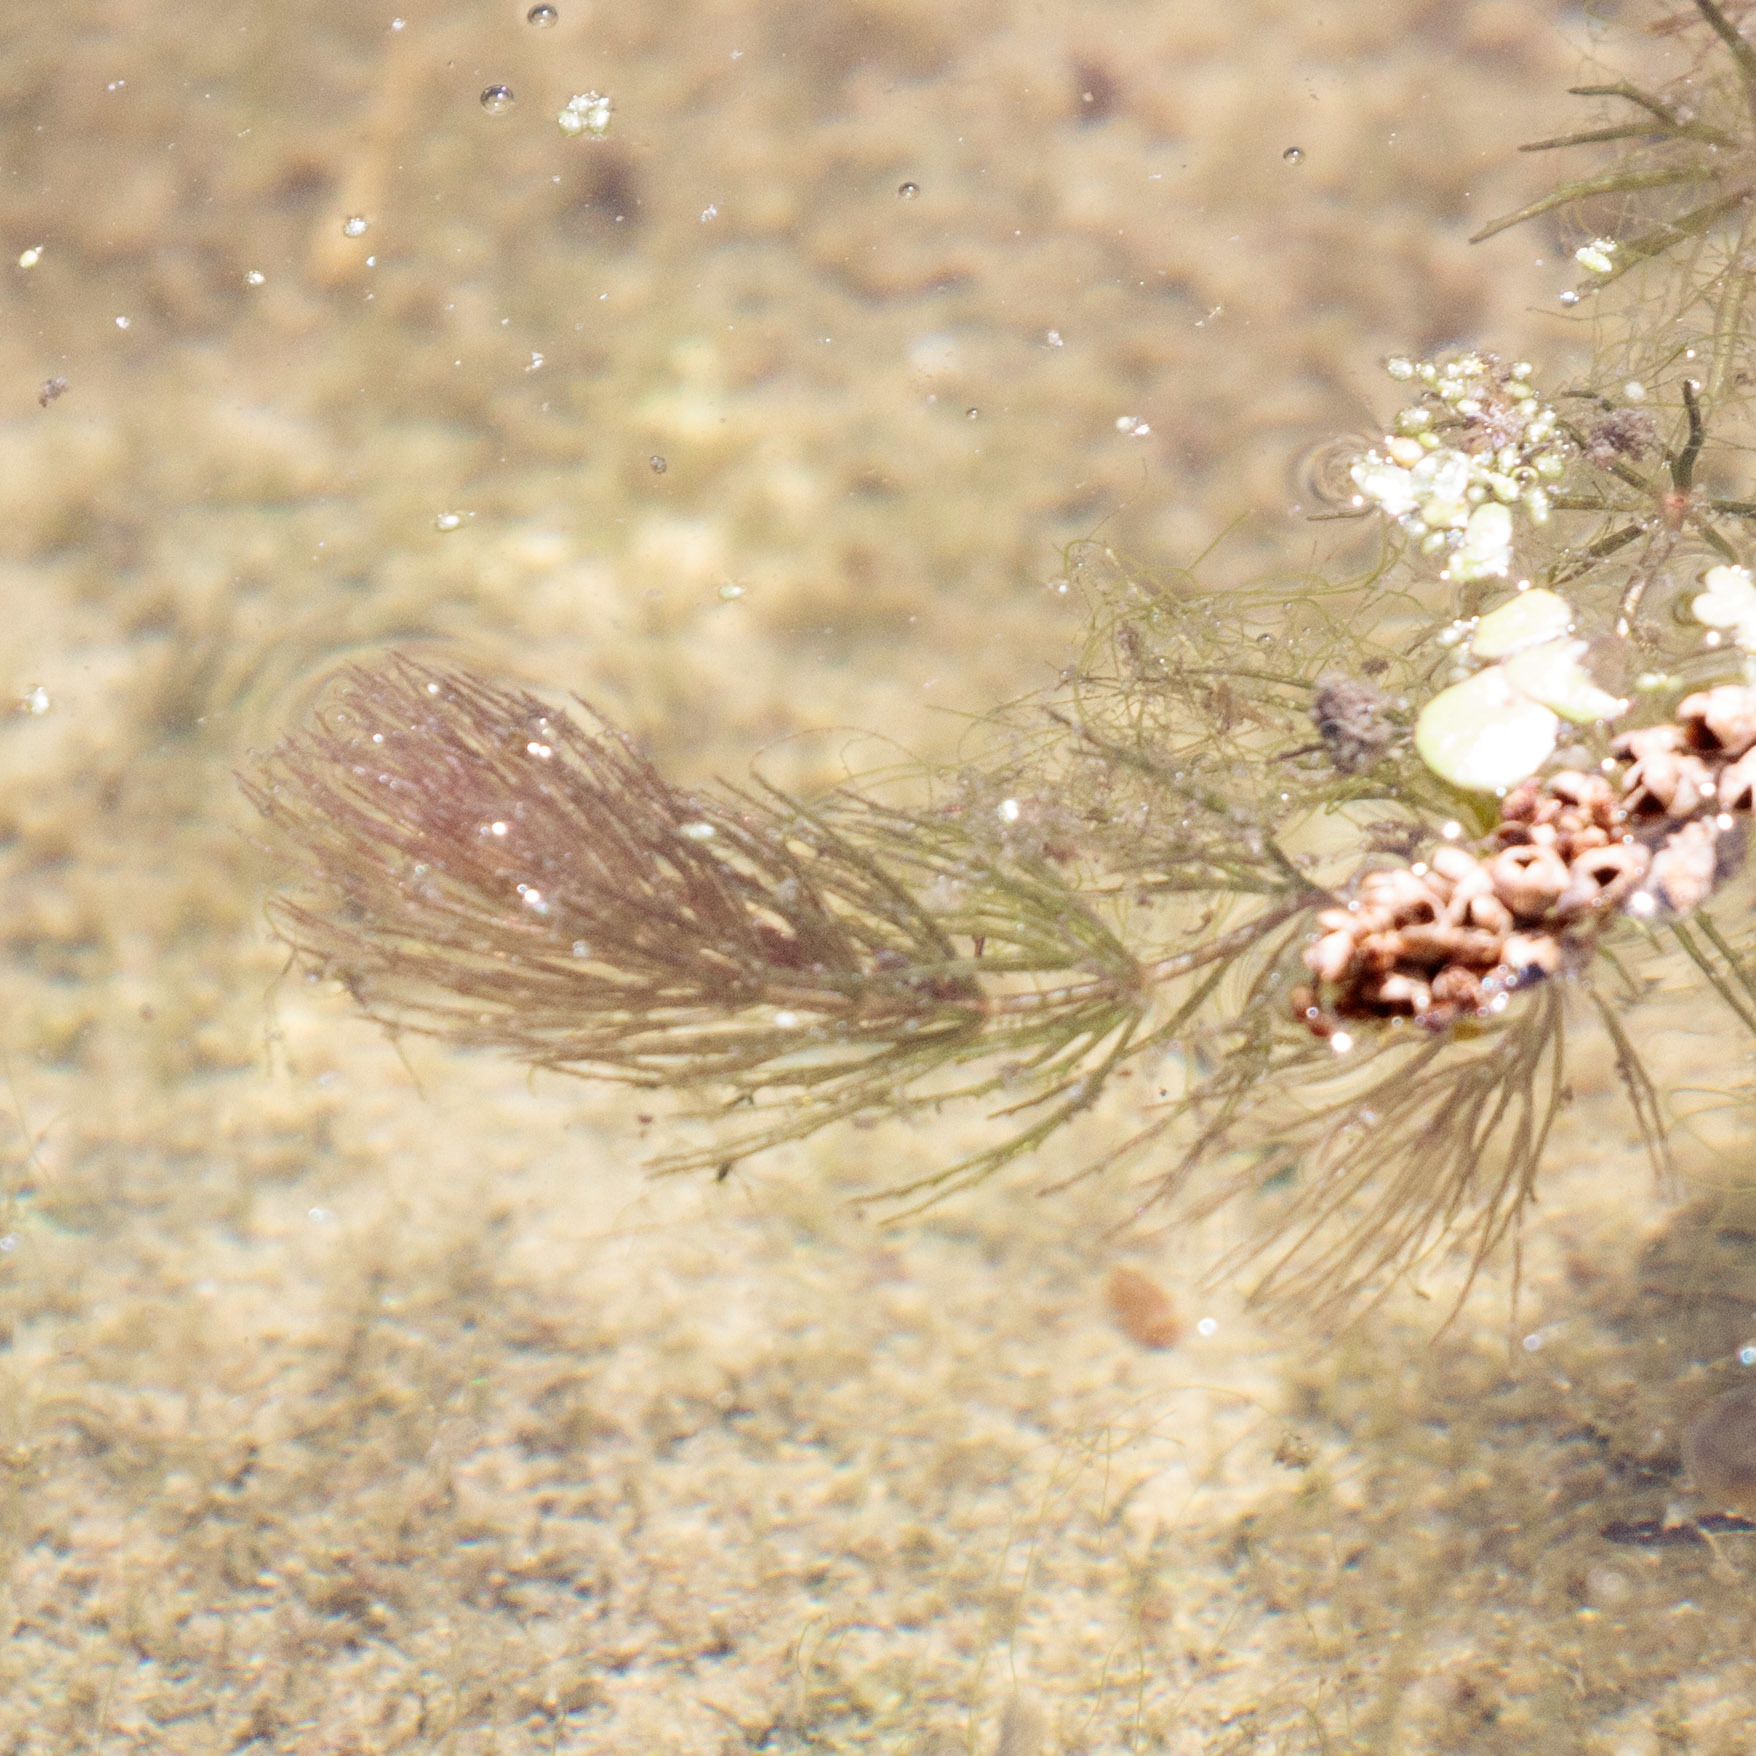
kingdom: Plantae
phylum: Tracheophyta
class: Magnoliopsida
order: Ceratophyllales
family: Ceratophyllaceae
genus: Ceratophyllum
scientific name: Ceratophyllum demersum
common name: Rigid hornwort
